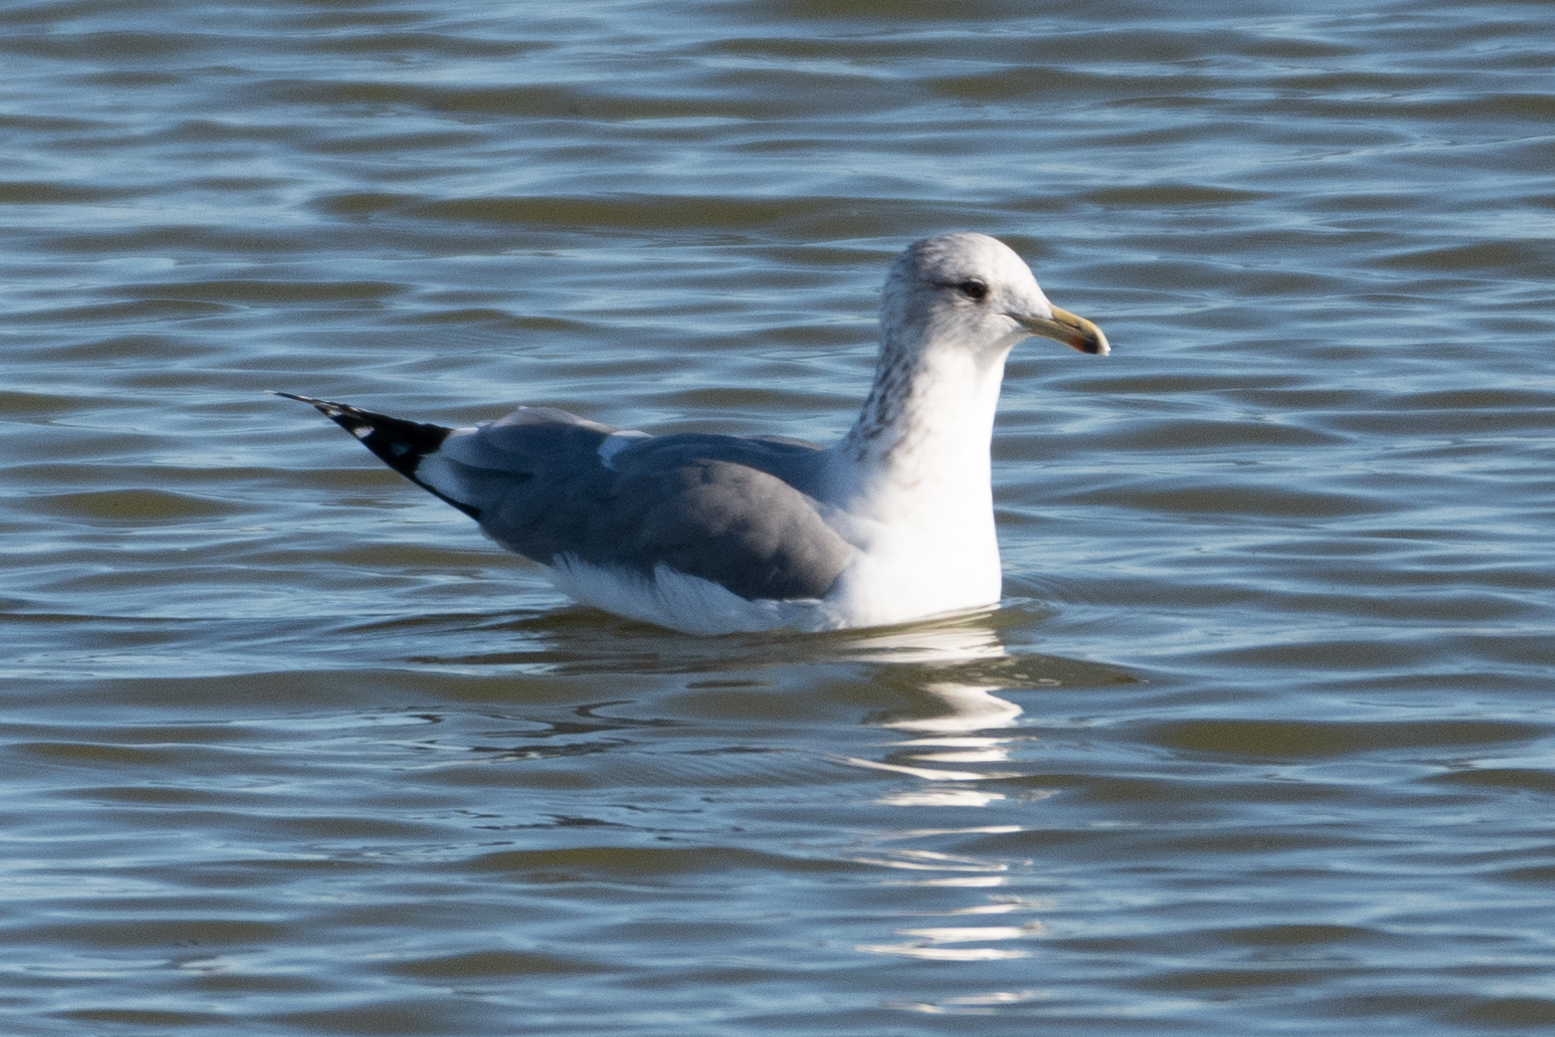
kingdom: Animalia
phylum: Chordata
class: Aves
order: Charadriiformes
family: Laridae
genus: Larus
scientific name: Larus californicus
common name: California gull
